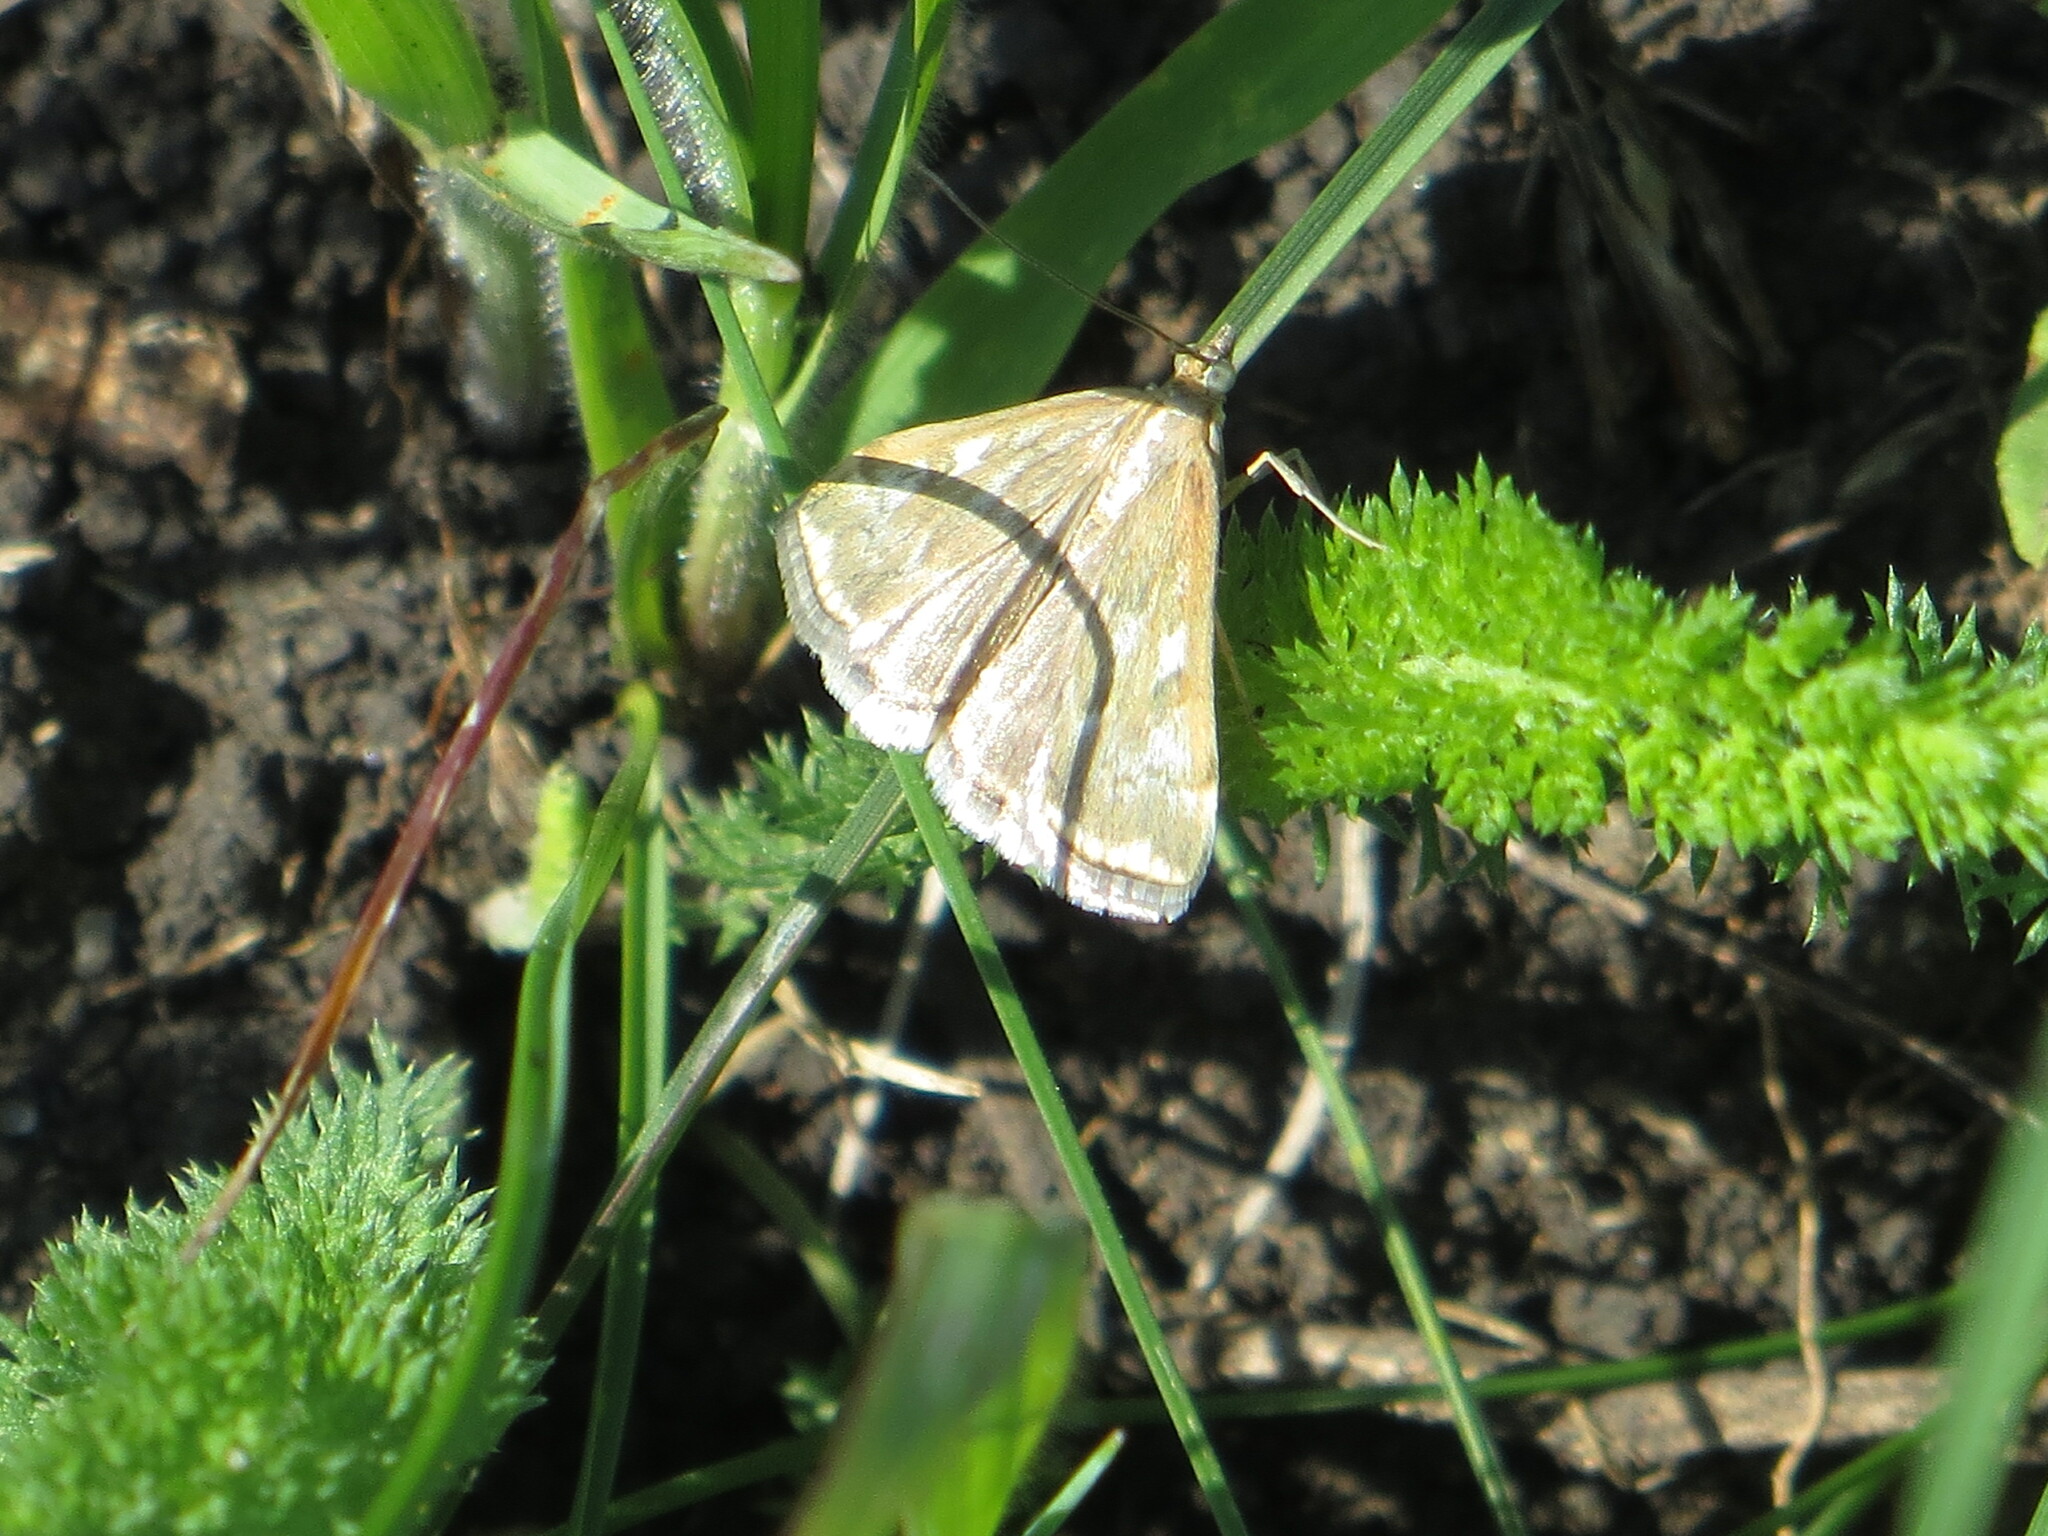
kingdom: Animalia
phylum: Arthropoda
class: Insecta
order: Lepidoptera
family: Crambidae
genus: Loxostege
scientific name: Loxostege sticticalis
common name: Crambid moth
